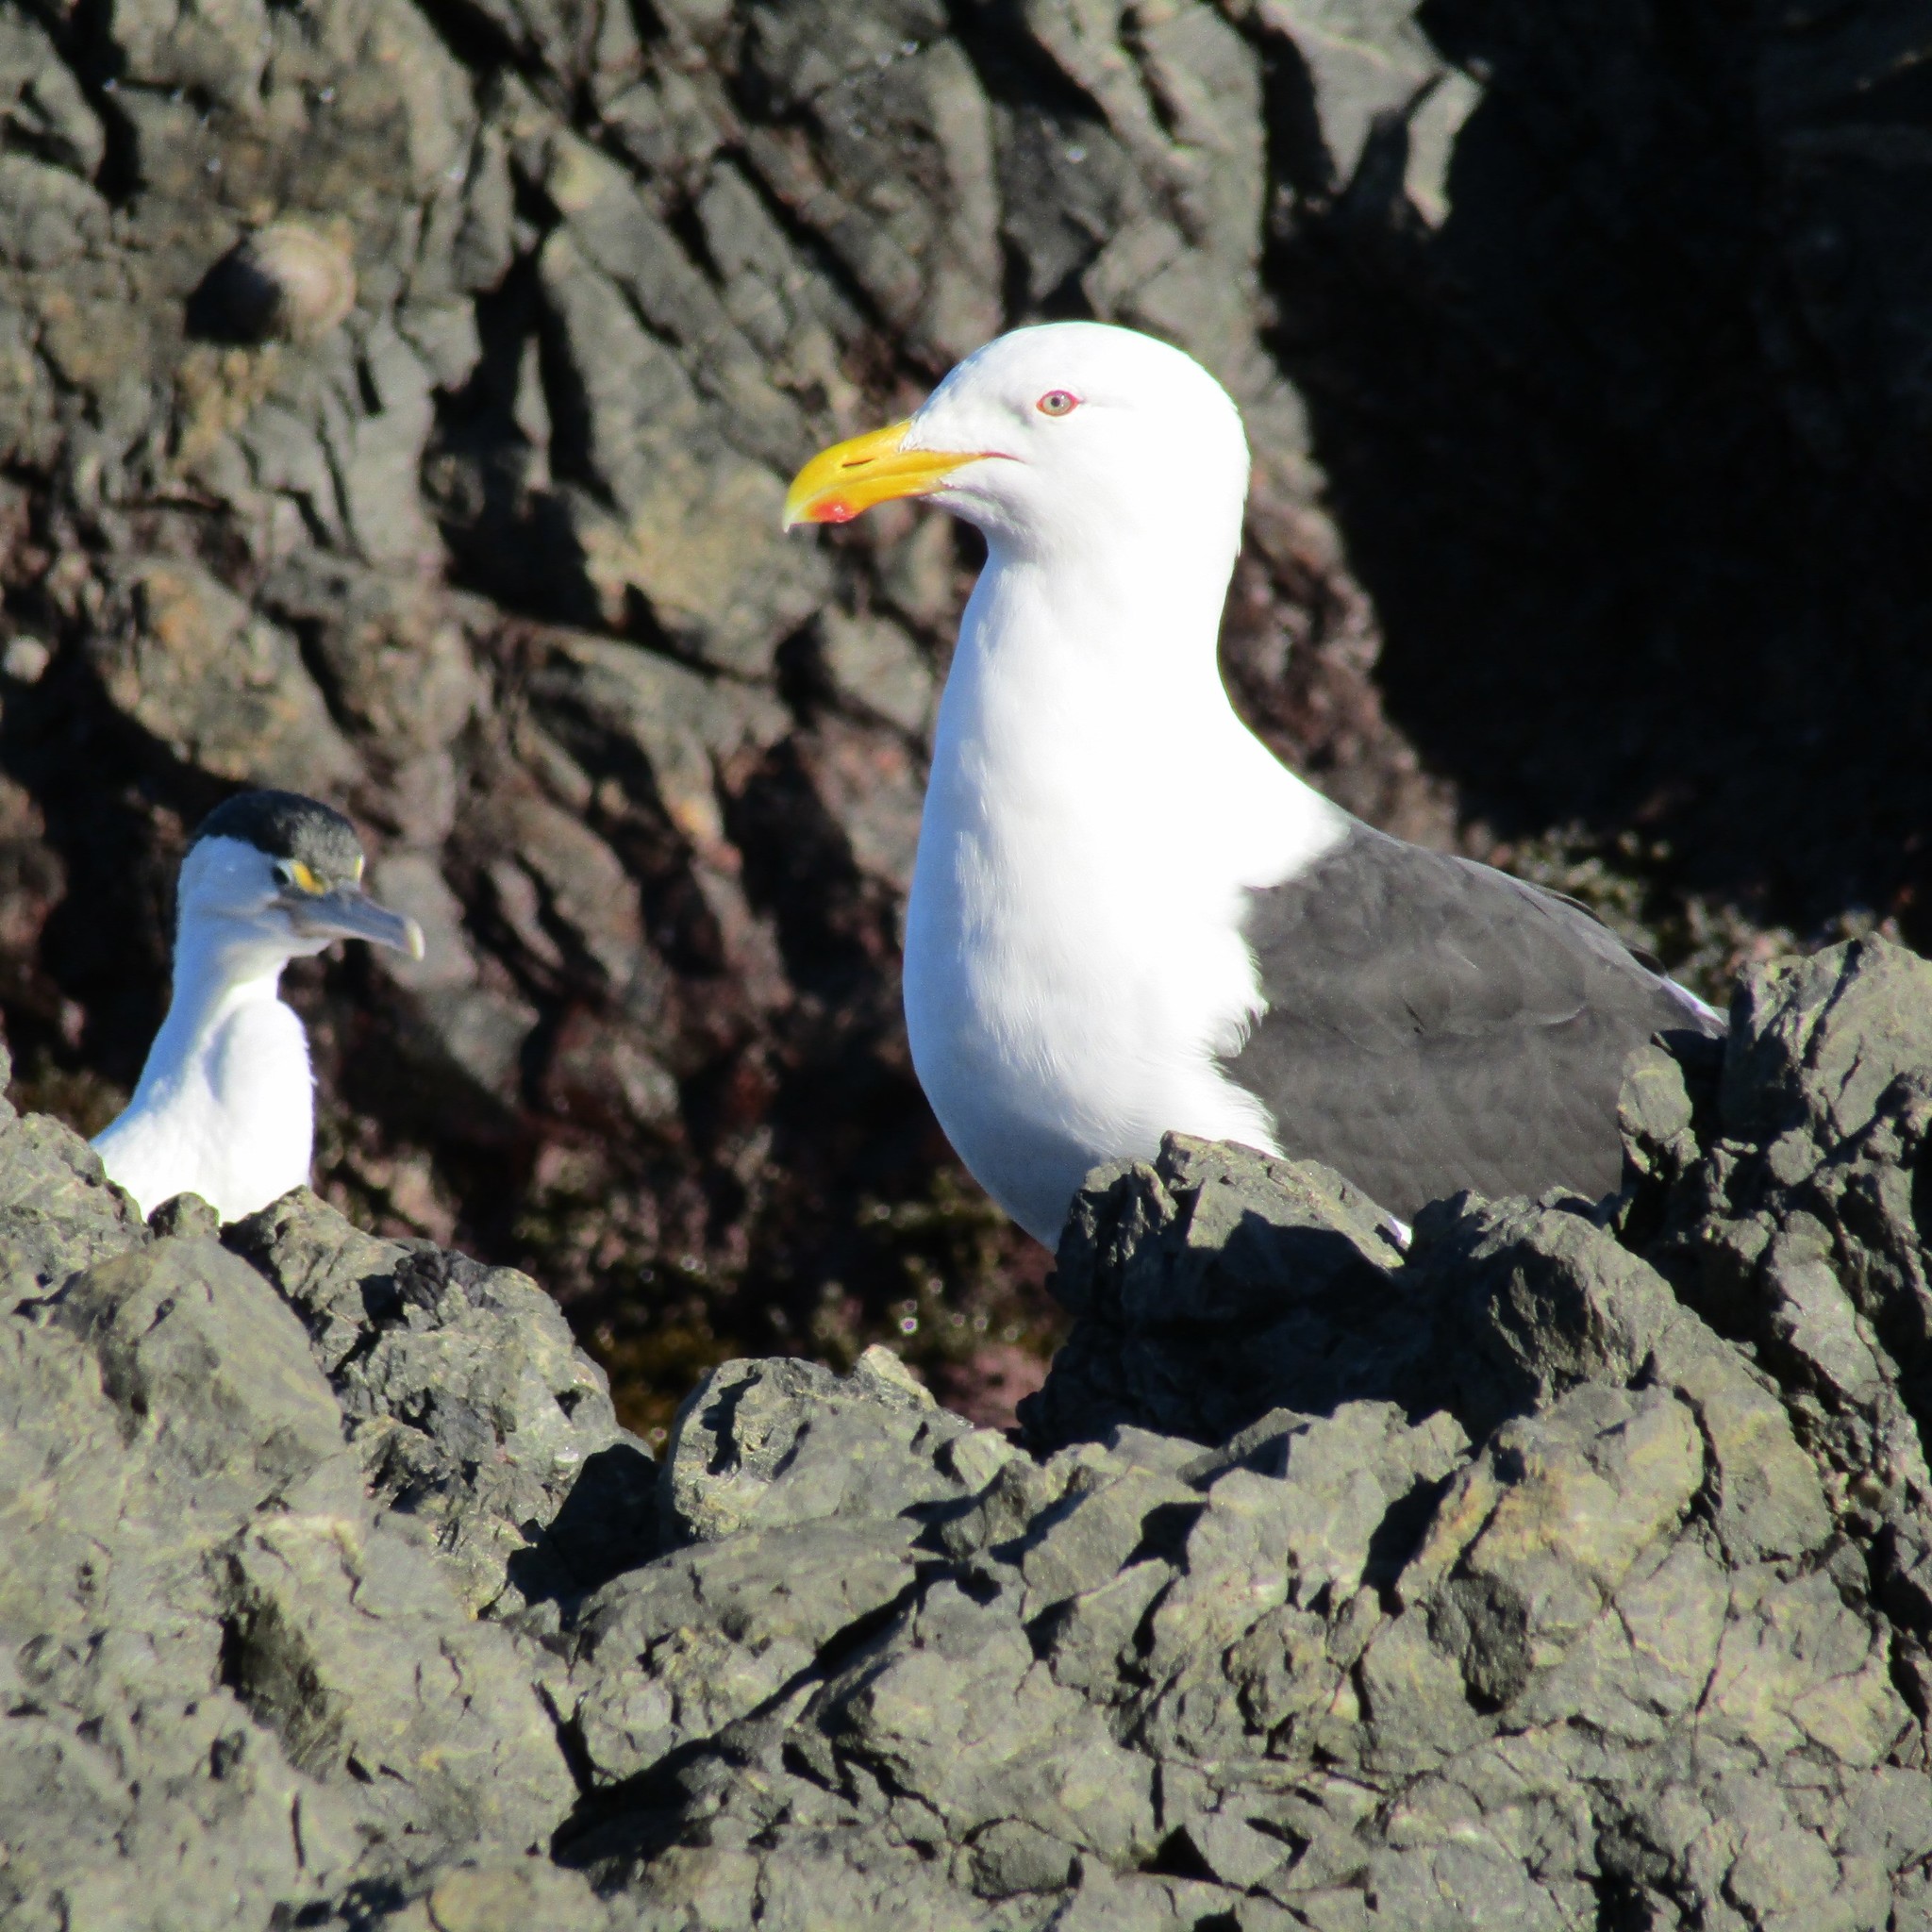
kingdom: Animalia
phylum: Chordata
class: Aves
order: Charadriiformes
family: Laridae
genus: Larus
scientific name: Larus dominicanus
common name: Kelp gull
